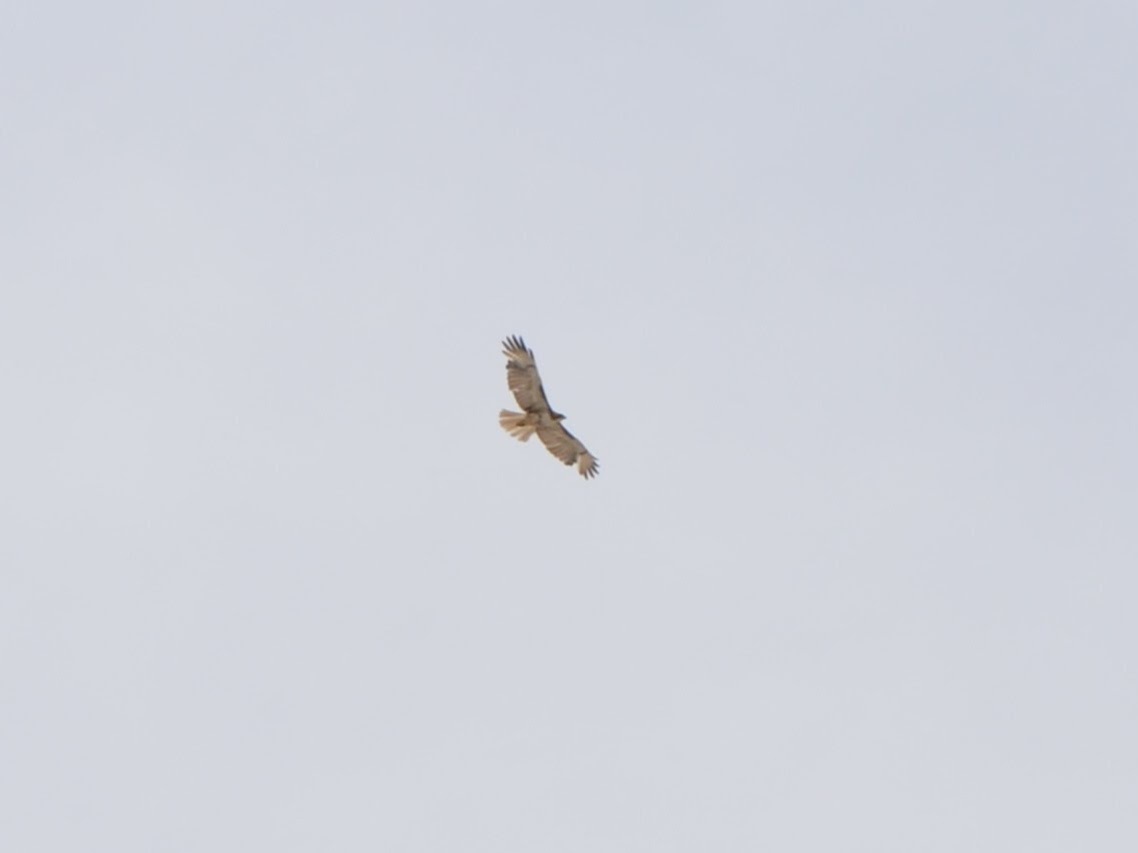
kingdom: Animalia
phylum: Chordata
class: Aves
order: Accipitriformes
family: Accipitridae
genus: Buteo
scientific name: Buteo jamaicensis
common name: Red-tailed hawk
